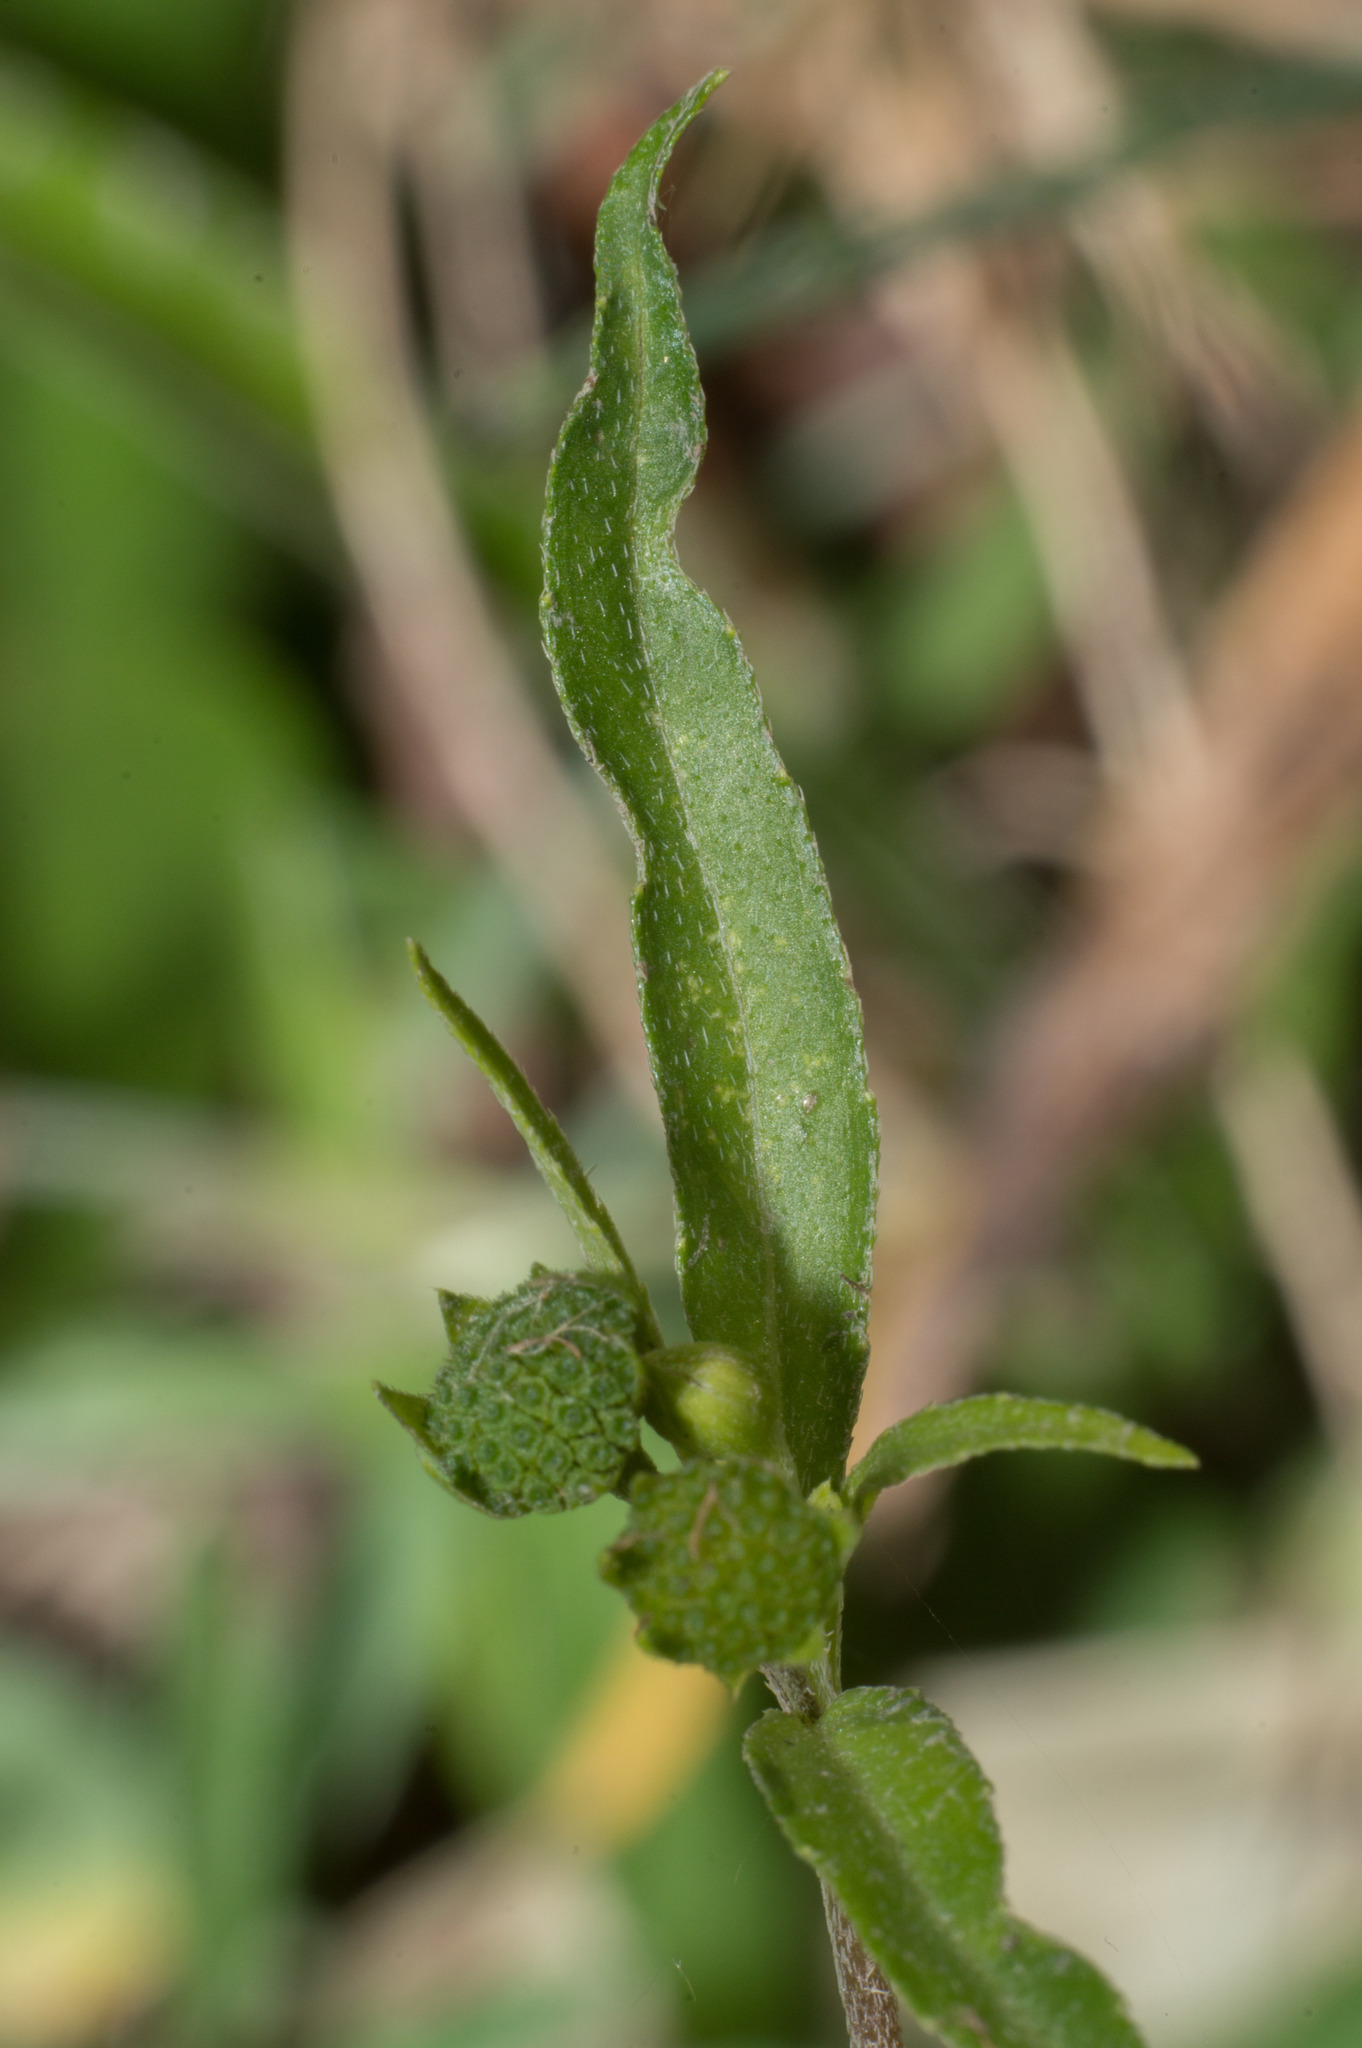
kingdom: Plantae
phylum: Tracheophyta
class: Magnoliopsida
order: Asterales
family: Asteraceae
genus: Eclipta
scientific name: Eclipta prostrata
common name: False daisy
